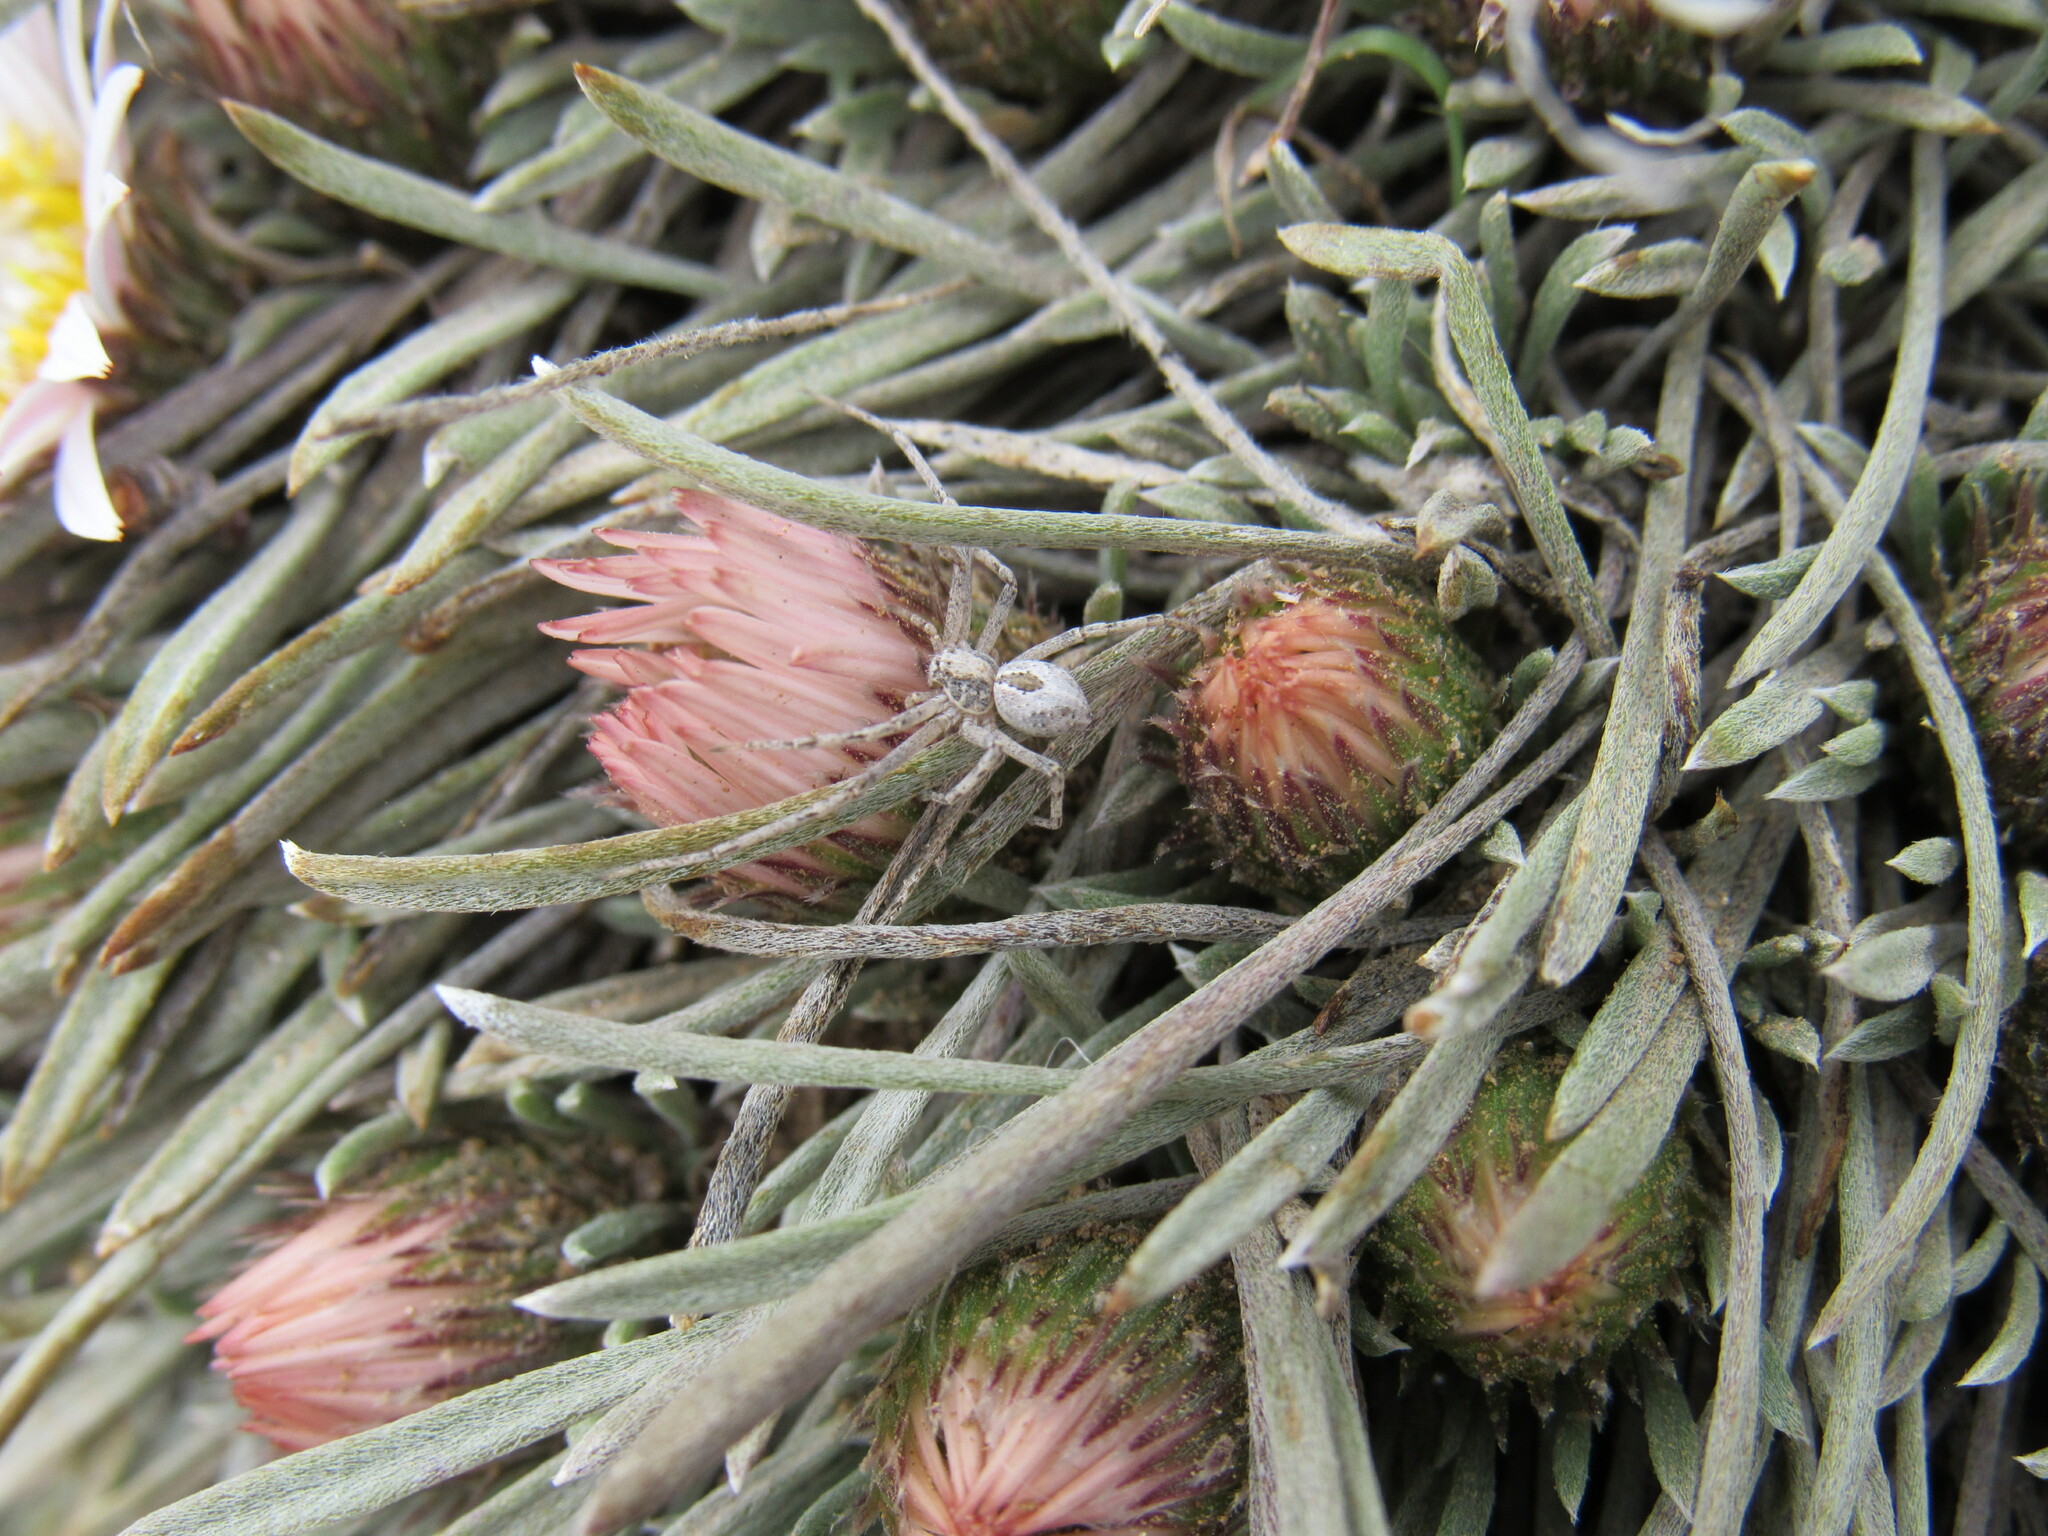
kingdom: Plantae
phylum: Tracheophyta
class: Magnoliopsida
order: Asterales
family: Asteraceae
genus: Townsendia
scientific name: Townsendia hookeri
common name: Hooker's townsend daisy
